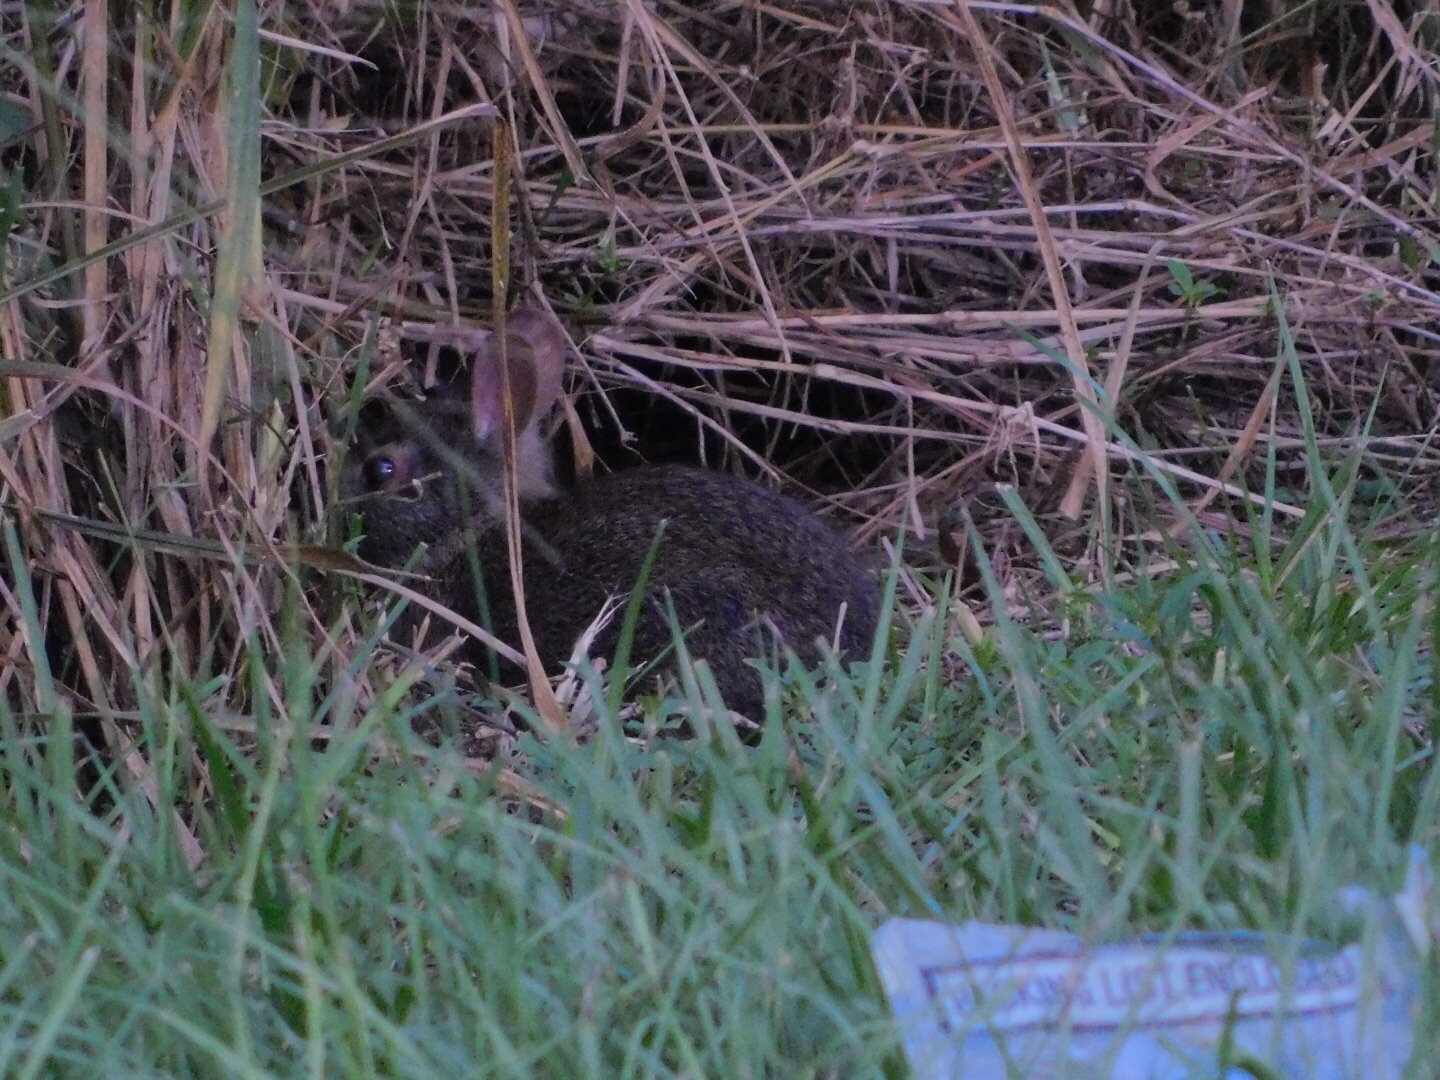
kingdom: Animalia
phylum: Chordata
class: Mammalia
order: Lagomorpha
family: Leporidae
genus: Sylvilagus
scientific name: Sylvilagus palustris
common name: Marsh rabbit
